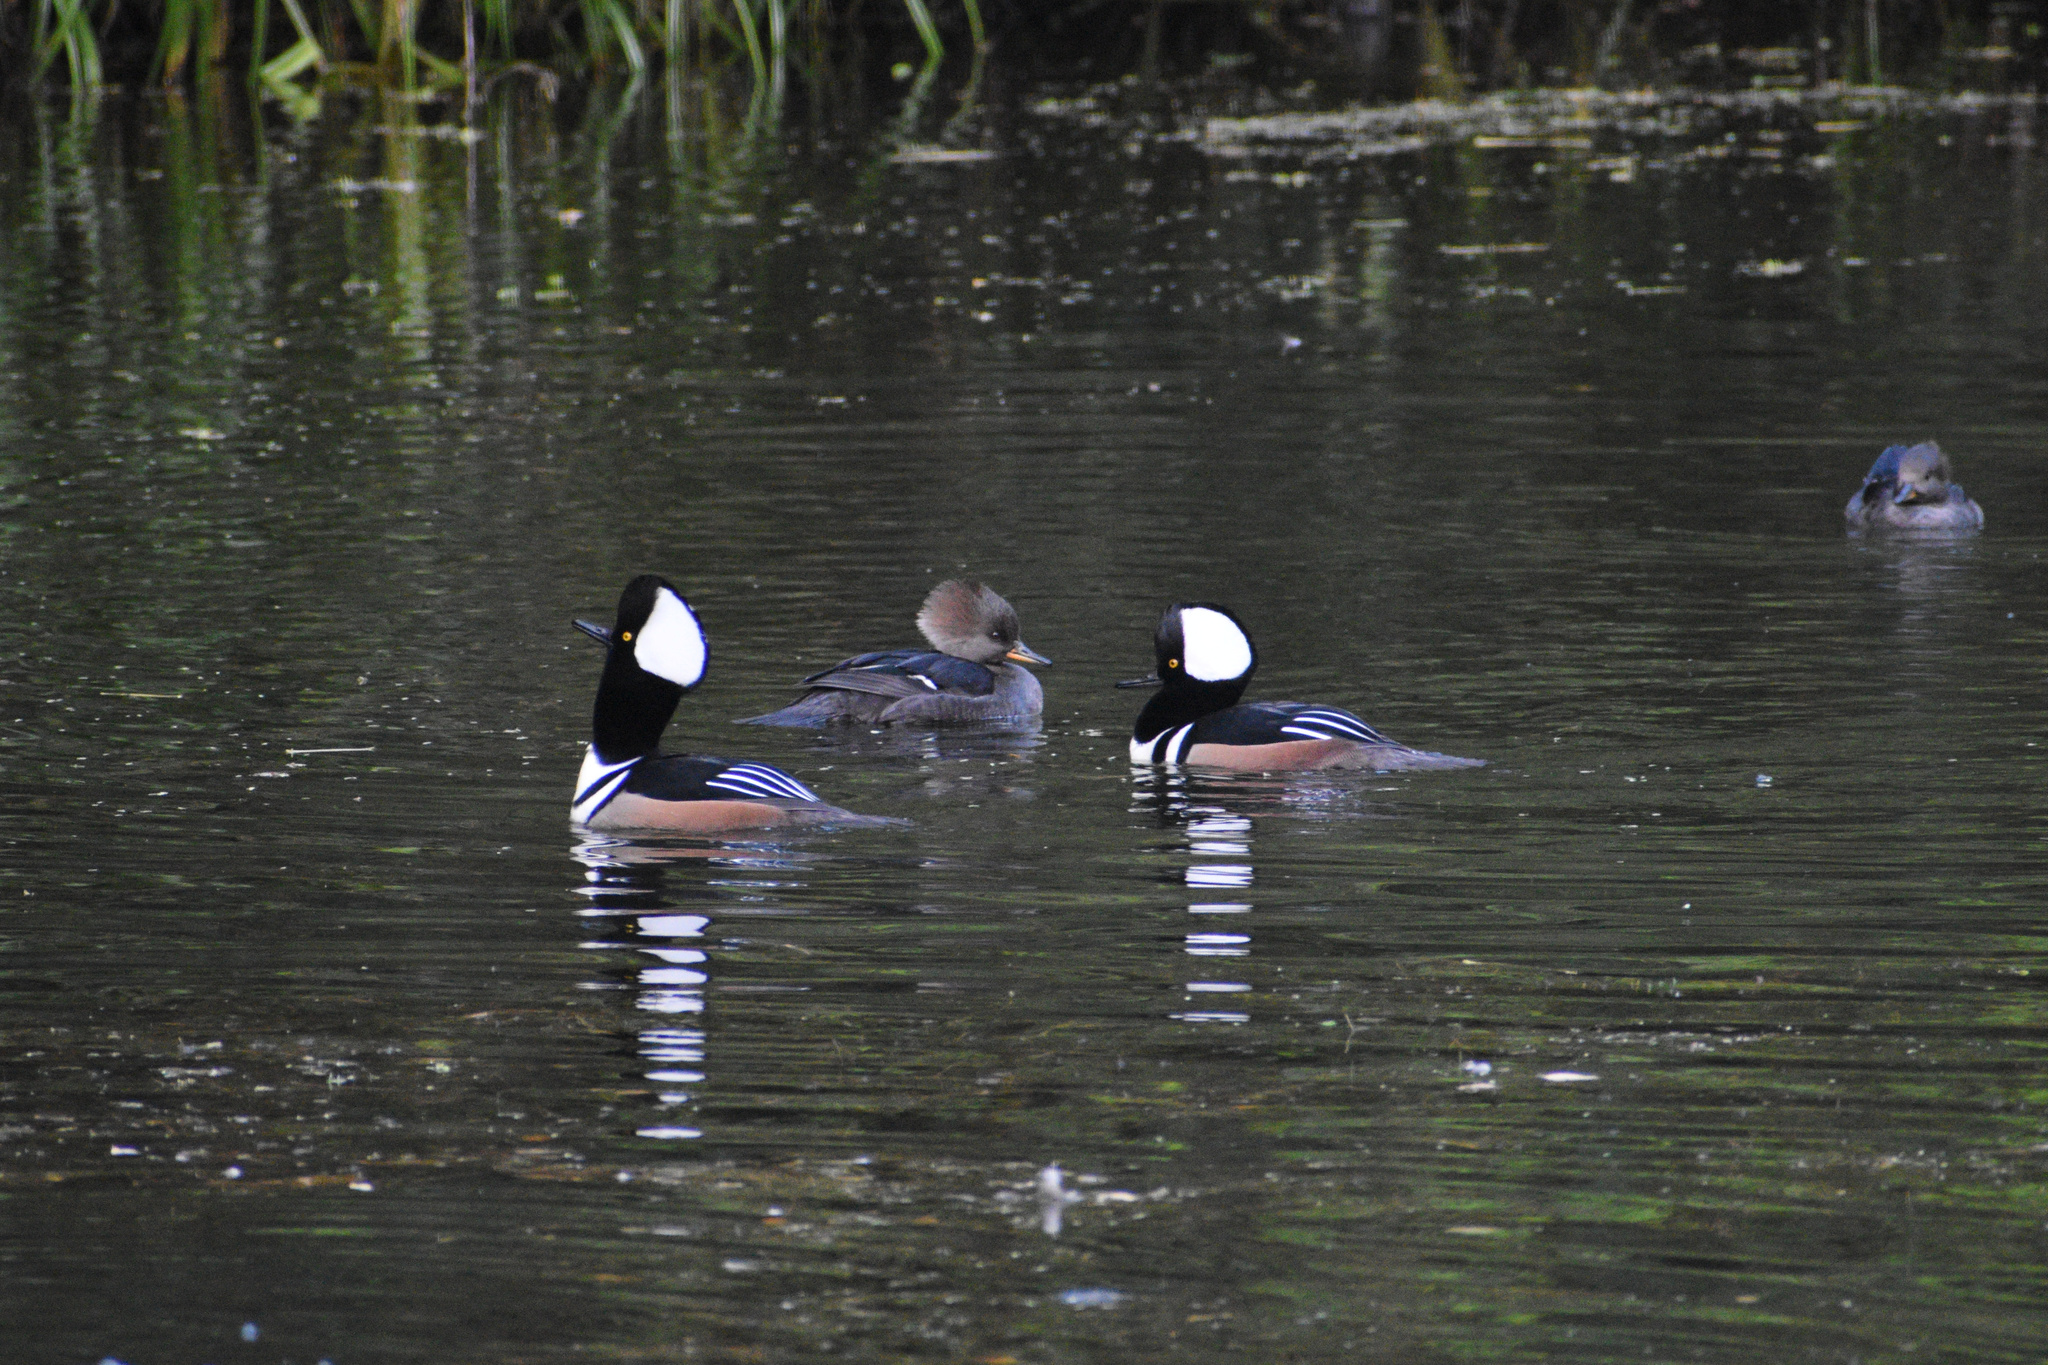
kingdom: Animalia
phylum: Chordata
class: Aves
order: Anseriformes
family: Anatidae
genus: Lophodytes
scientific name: Lophodytes cucullatus
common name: Hooded merganser
